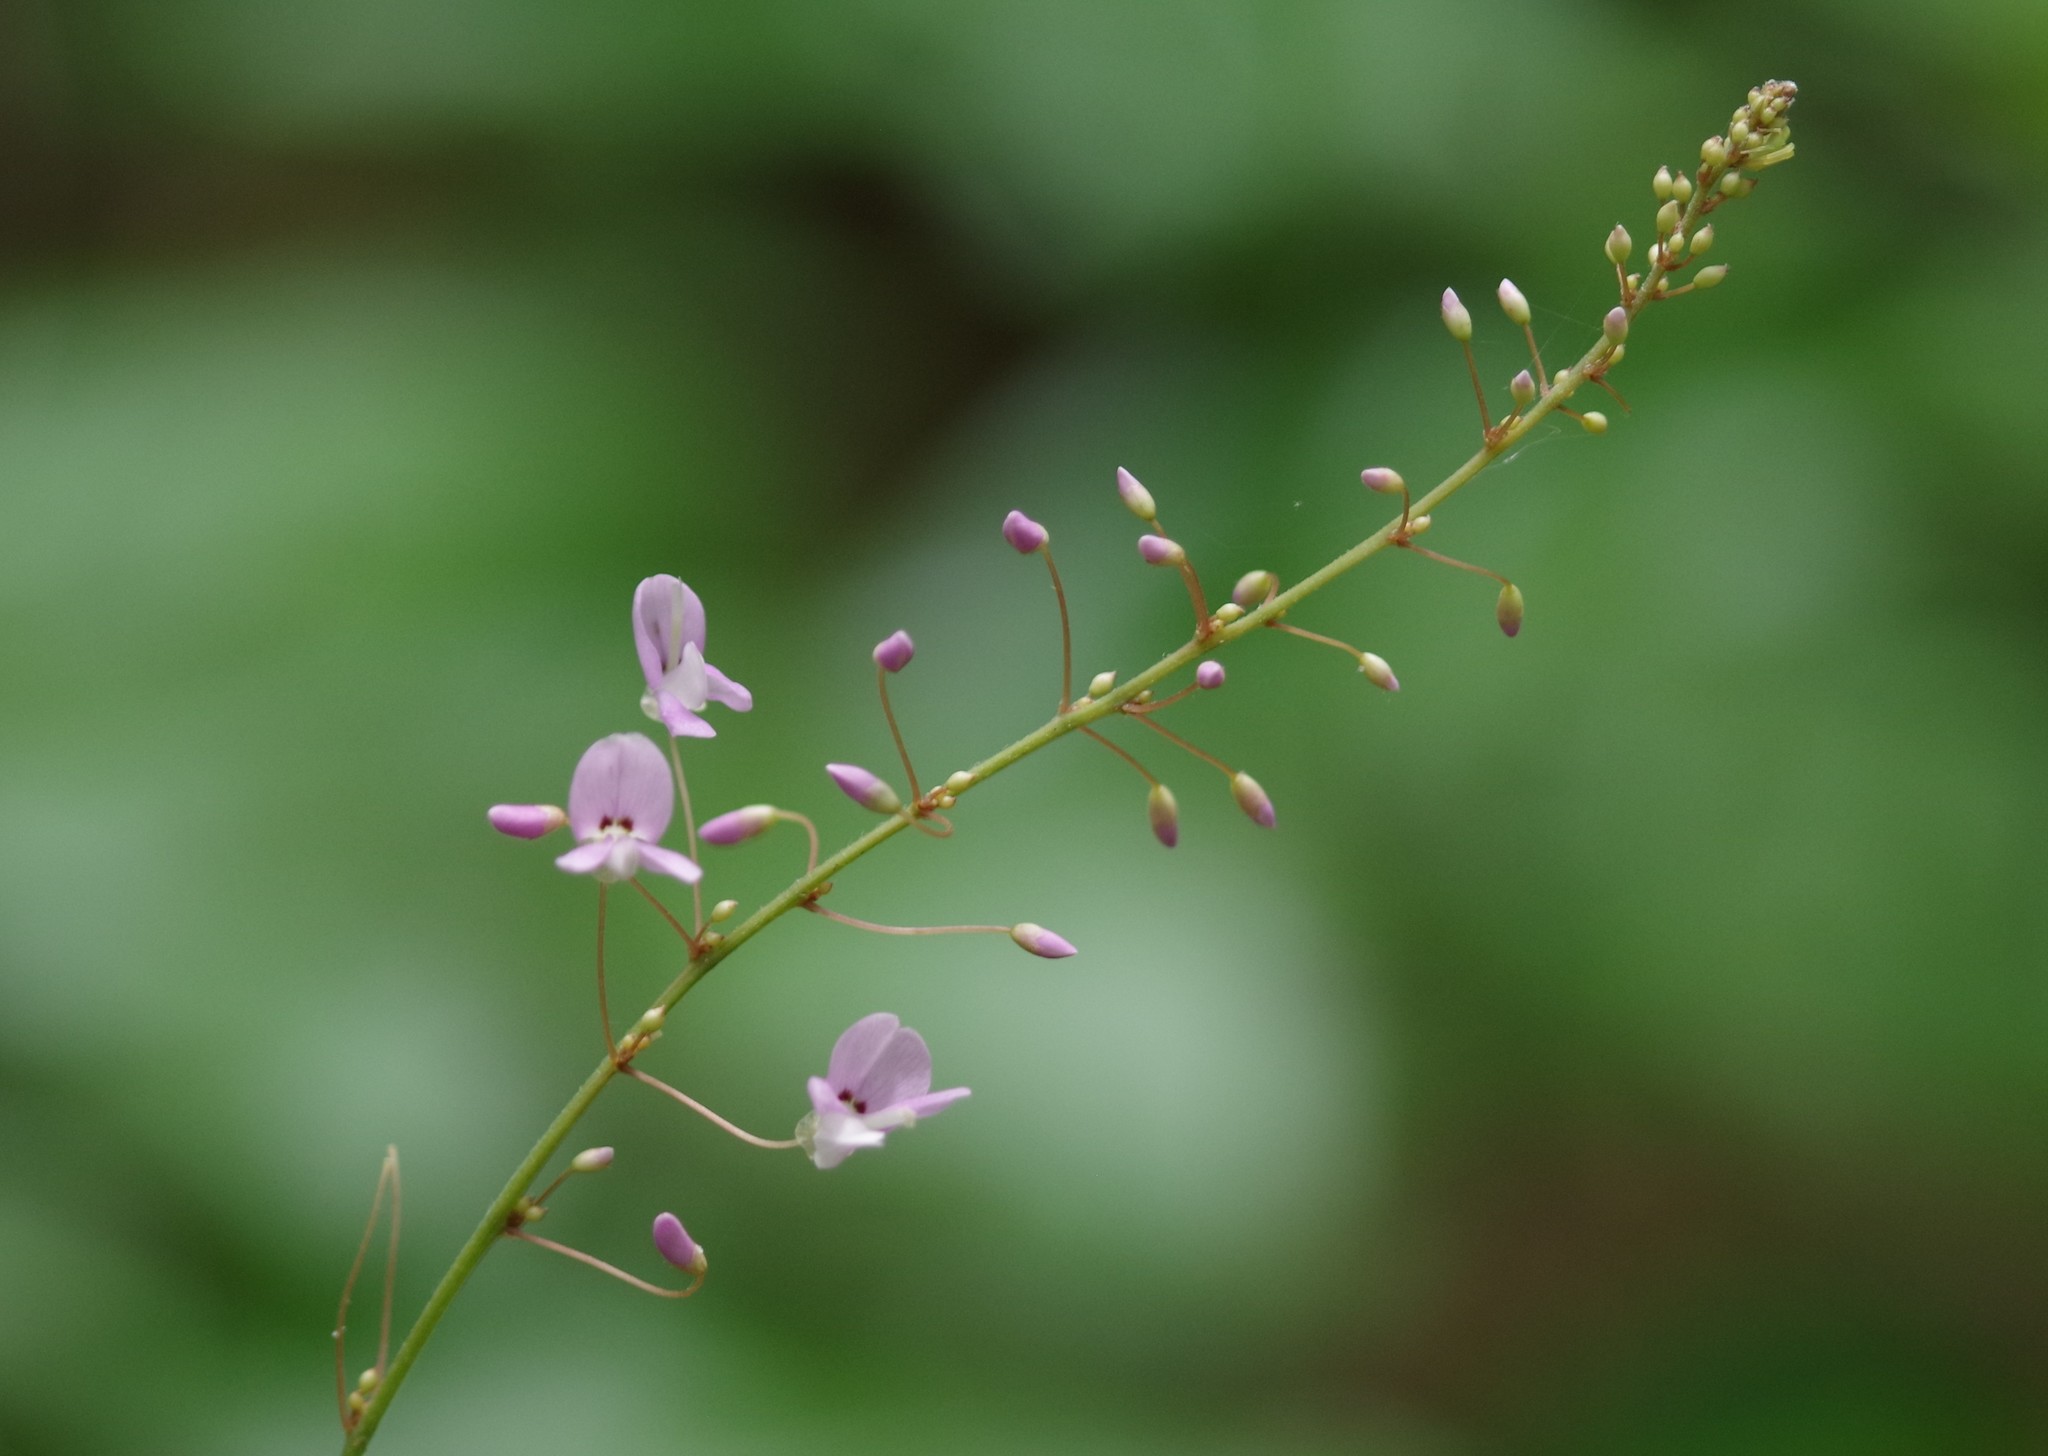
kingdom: Plantae
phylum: Tracheophyta
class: Magnoliopsida
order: Fabales
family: Fabaceae
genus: Hylodesmum
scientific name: Hylodesmum nudiflorum
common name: Bare-stemmed tick-trefoil
